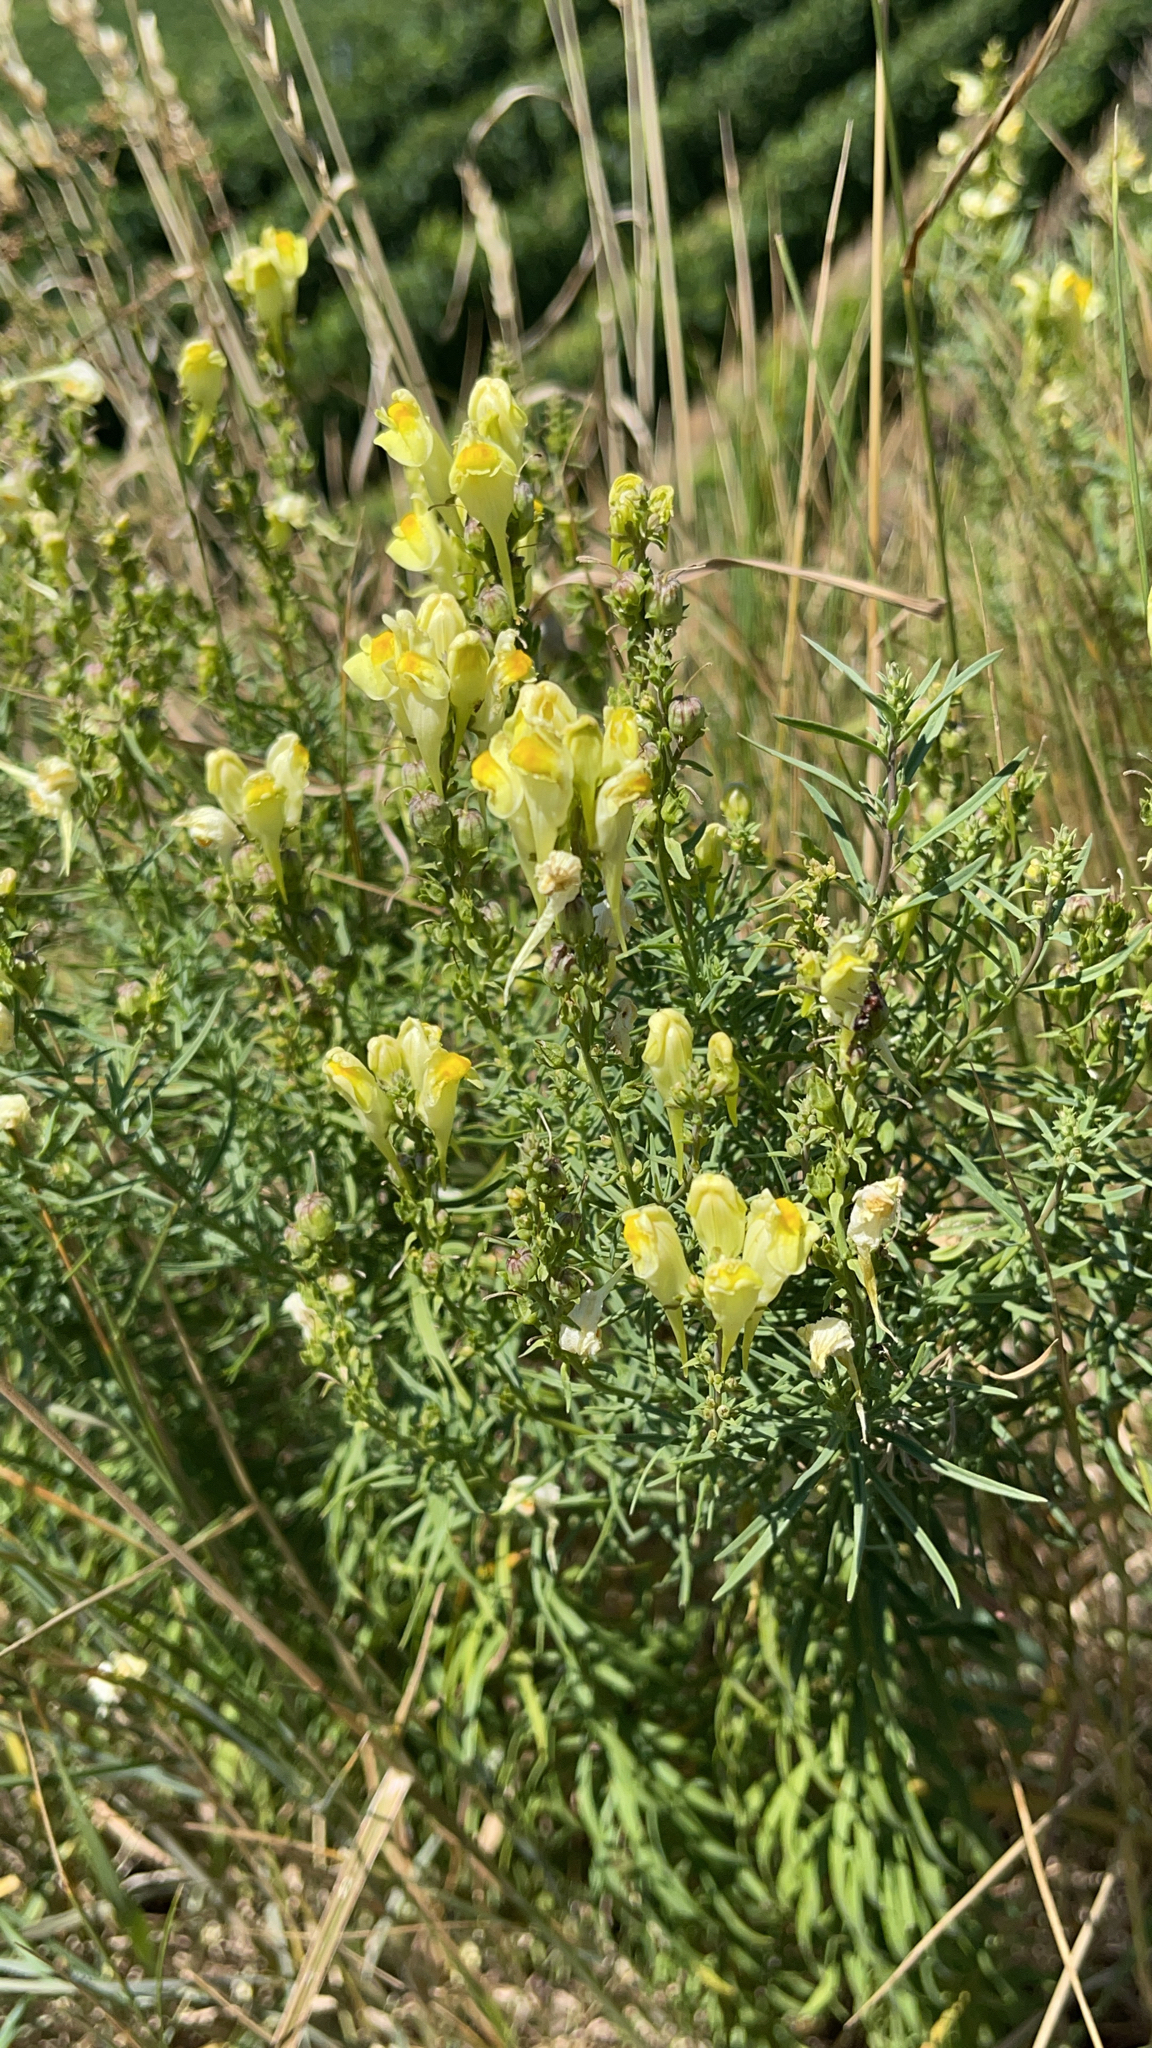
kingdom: Plantae
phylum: Tracheophyta
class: Magnoliopsida
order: Lamiales
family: Plantaginaceae
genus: Linaria
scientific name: Linaria vulgaris
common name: Butter and eggs
